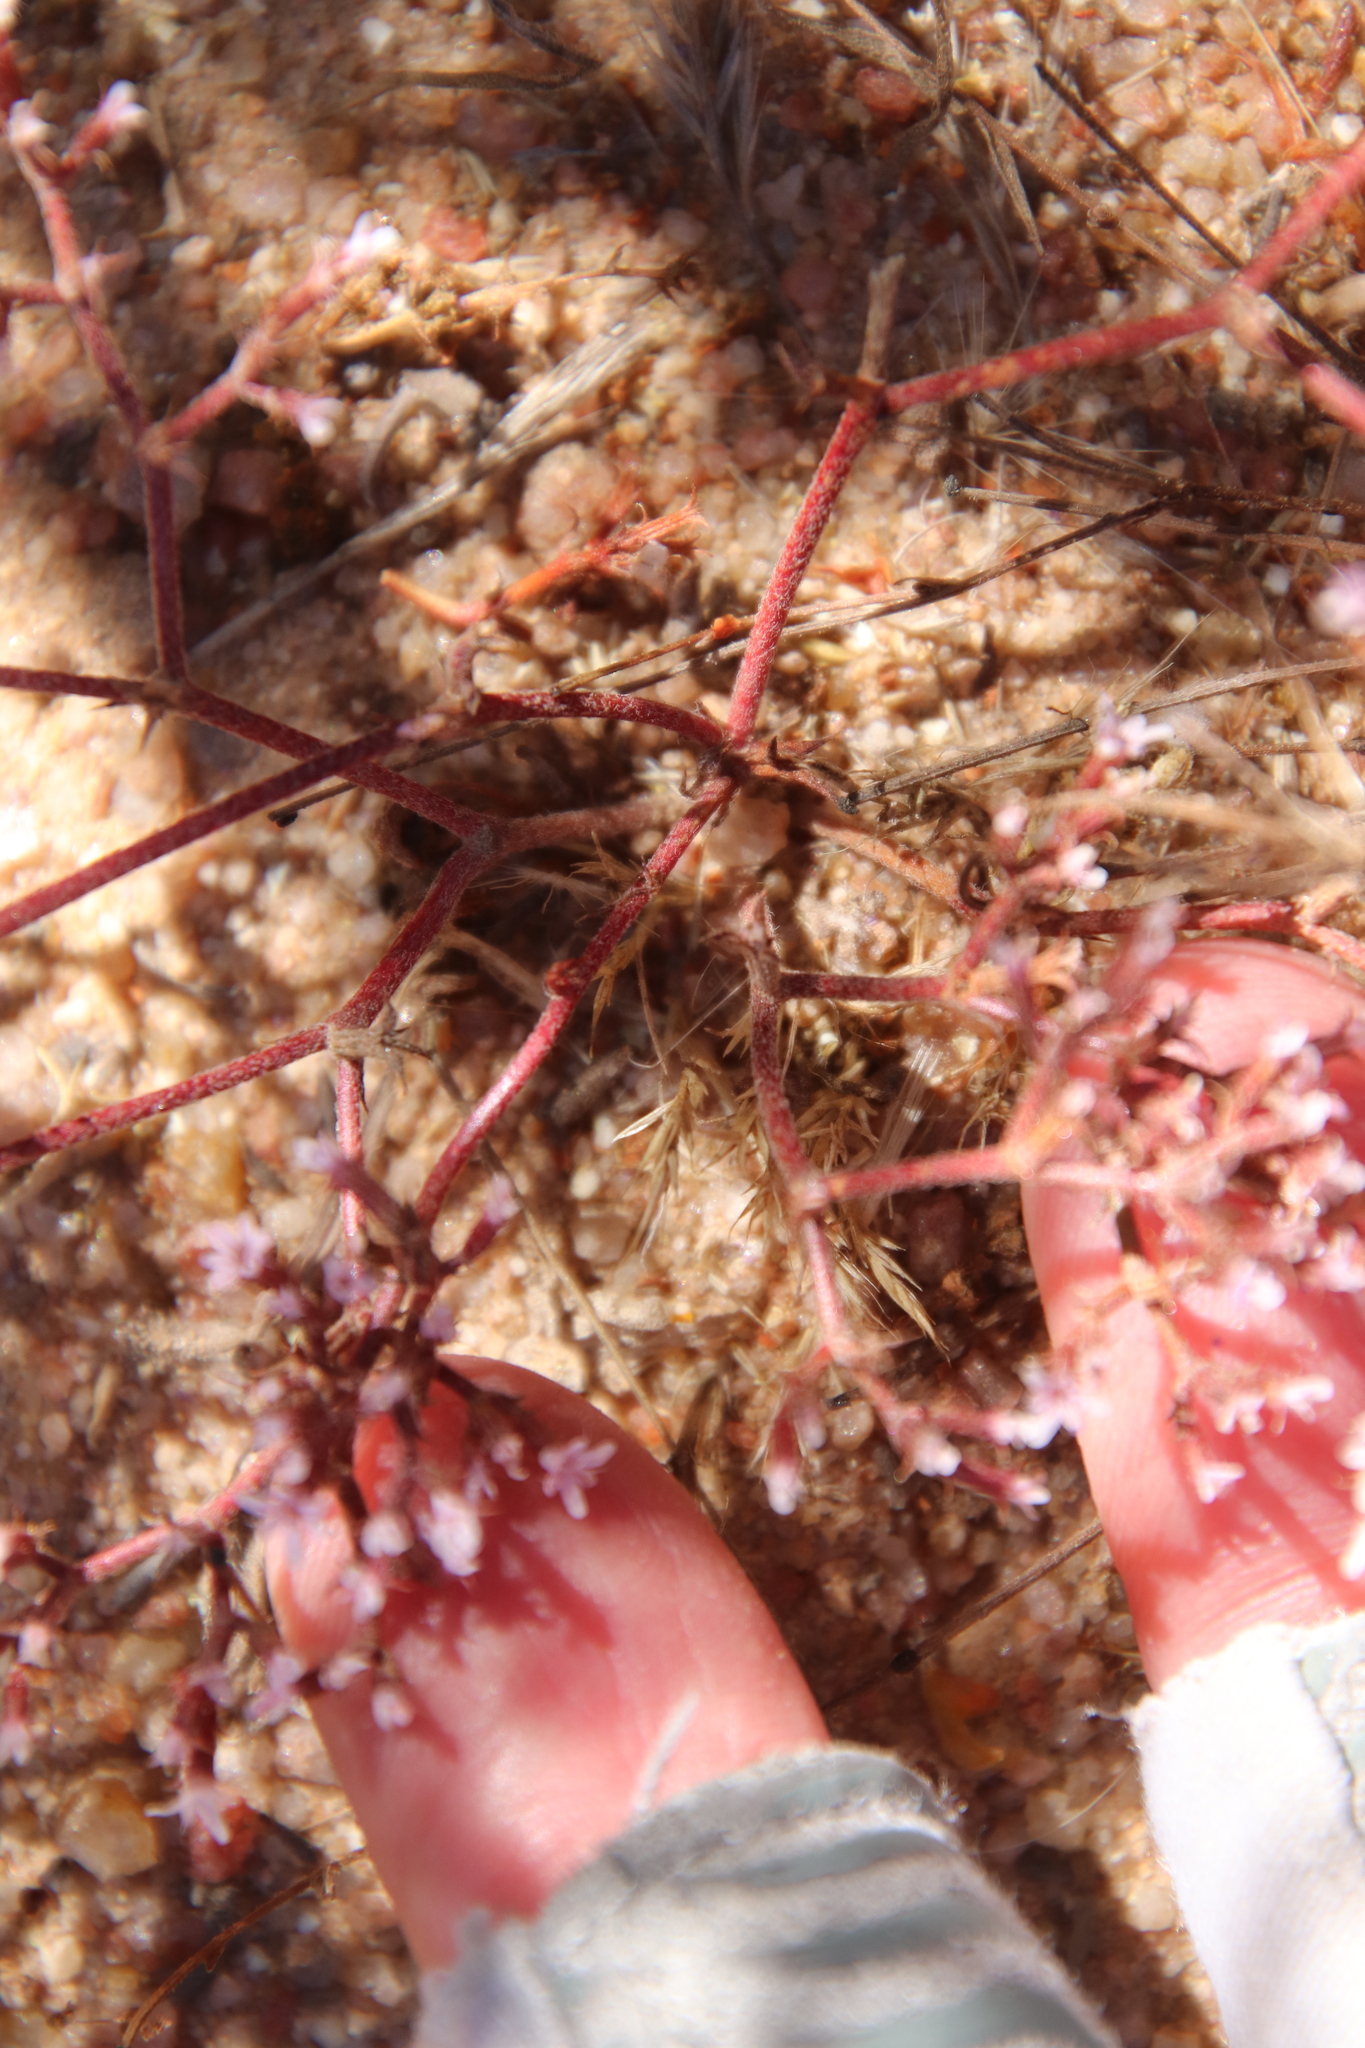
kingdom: Plantae
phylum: Tracheophyta
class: Magnoliopsida
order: Caryophyllales
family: Polygonaceae
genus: Chorizanthe
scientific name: Chorizanthe leptotheca
